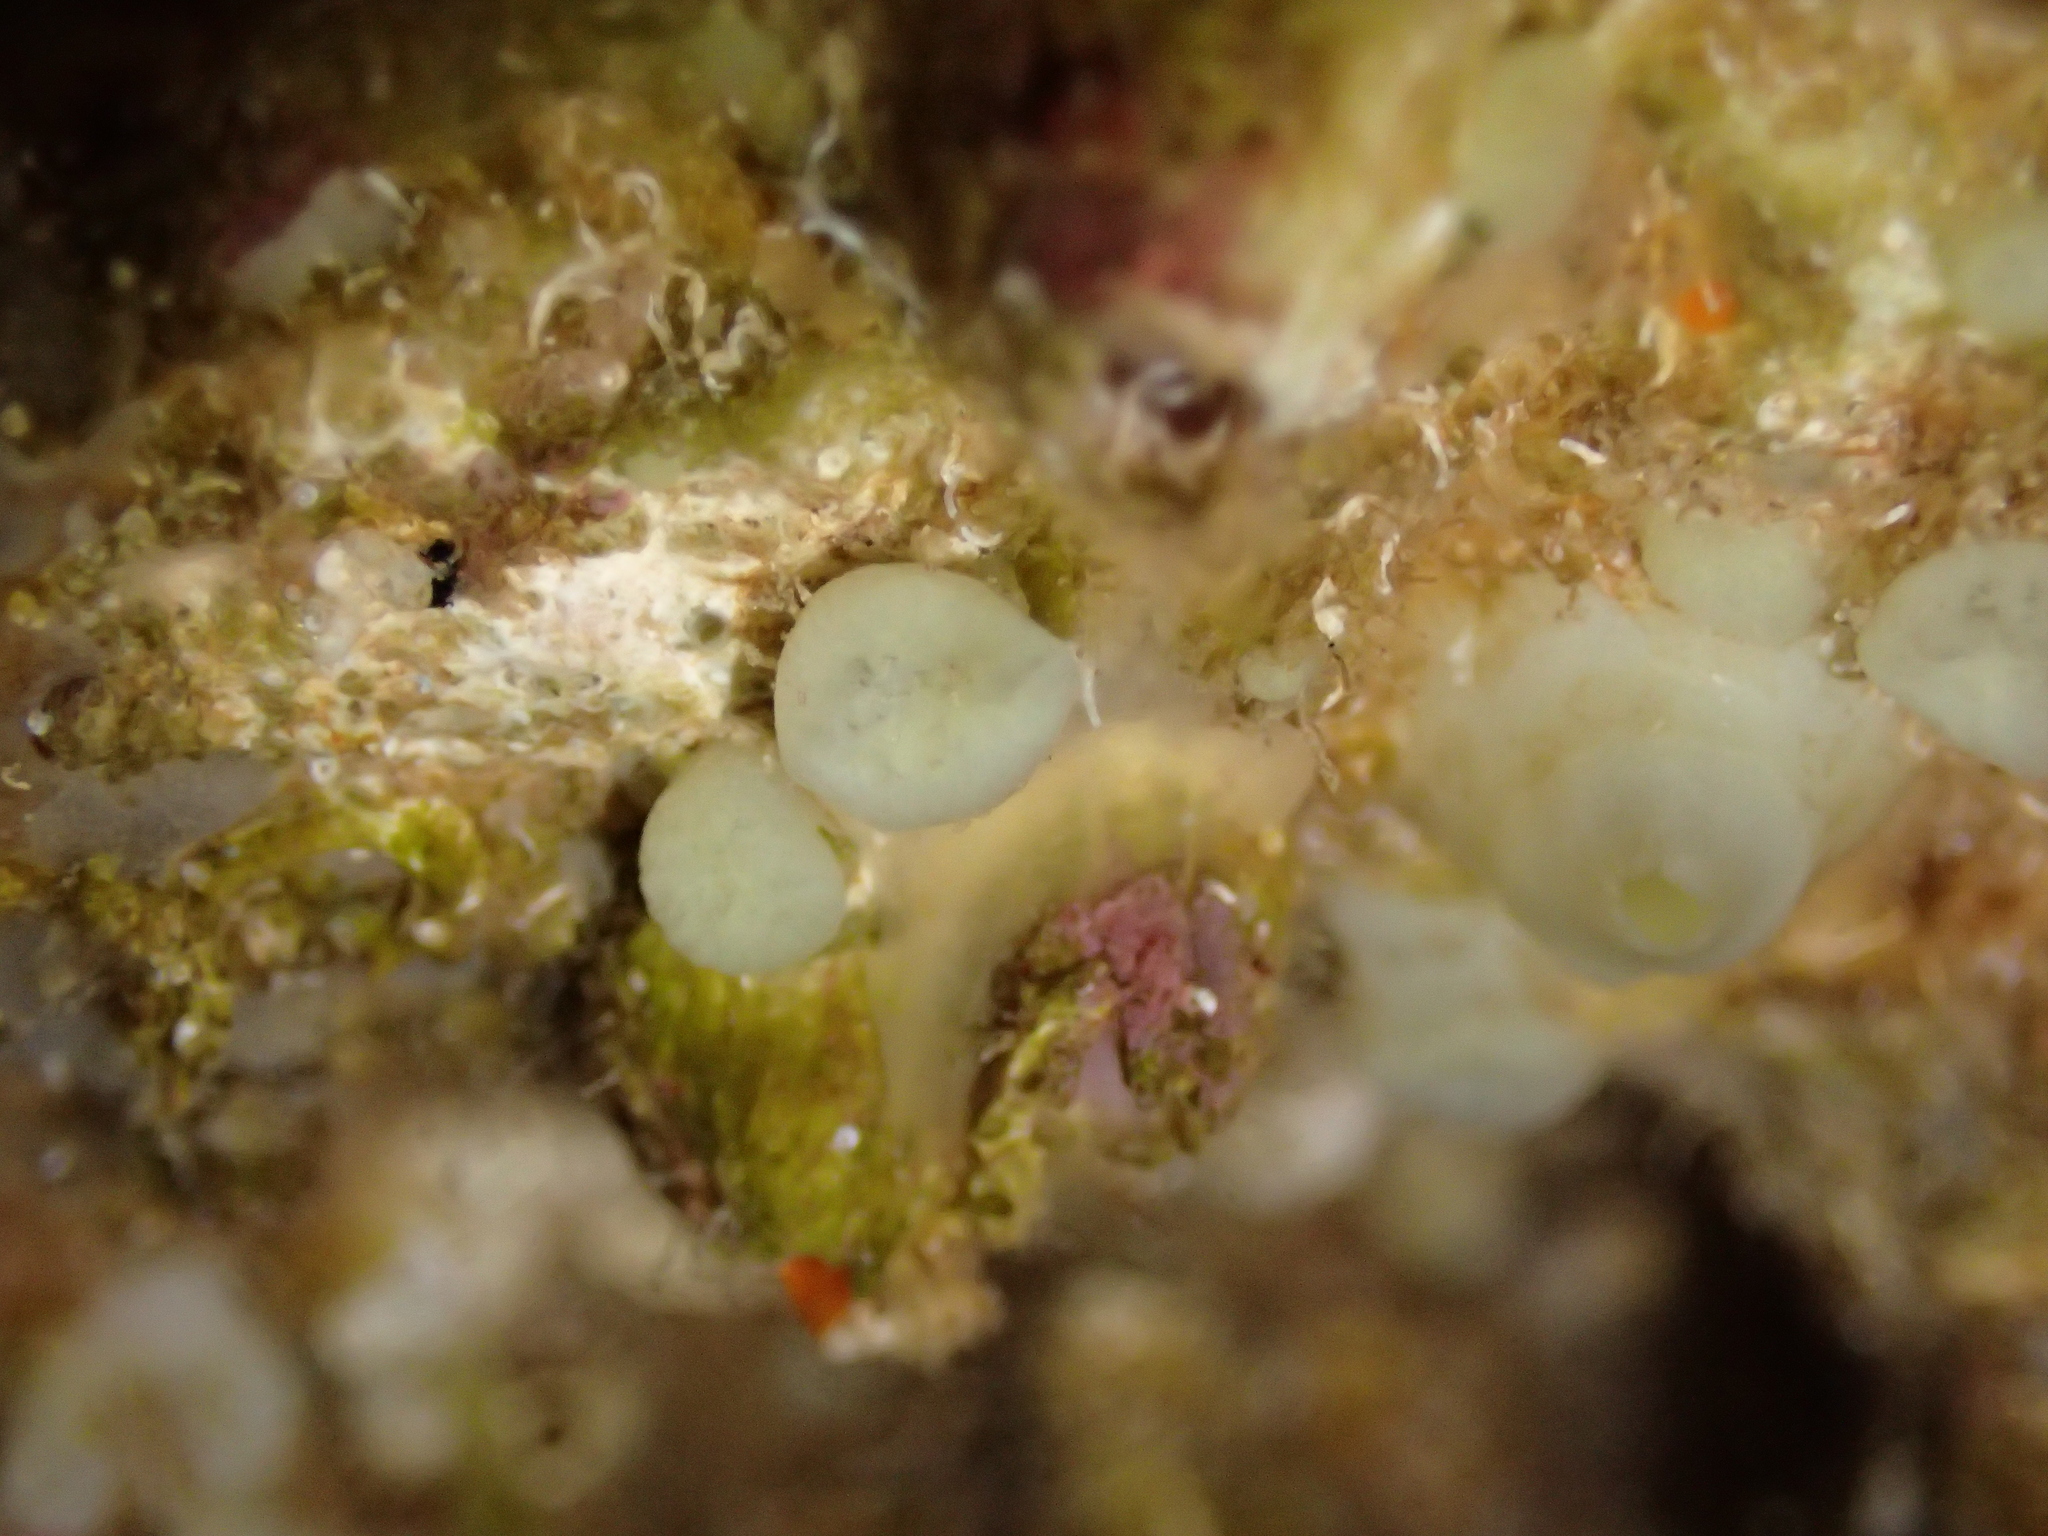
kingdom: Animalia
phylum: Porifera
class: Demospongiae
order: Clionaida
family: Clionaidae
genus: Cliona
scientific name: Cliona viridis
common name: Green boring sponge
